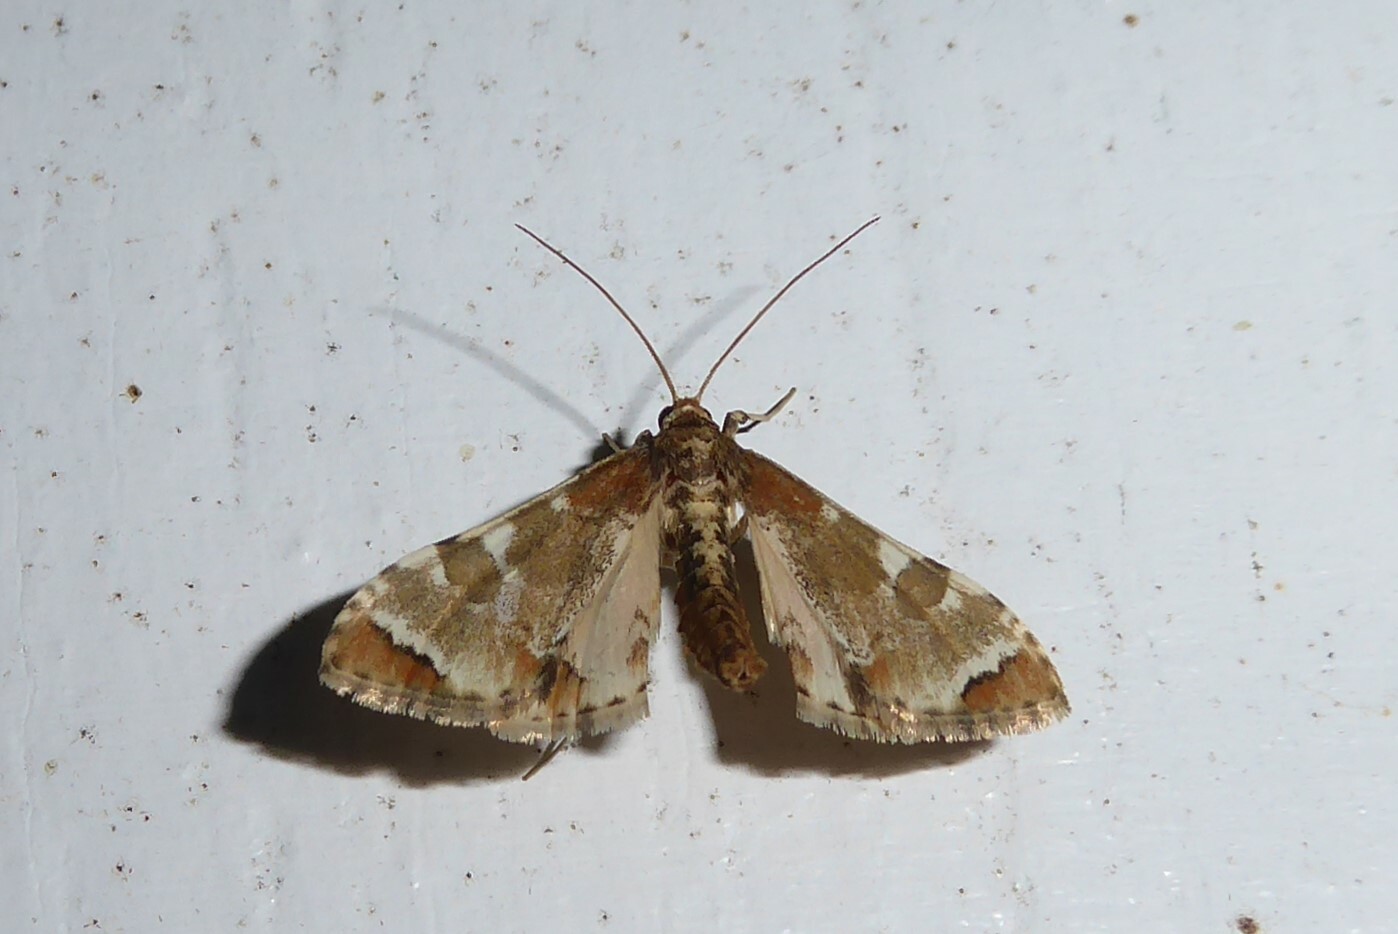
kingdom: Animalia
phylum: Arthropoda
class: Insecta
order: Lepidoptera
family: Crambidae
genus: Sceliodes
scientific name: Sceliodes cordalis
